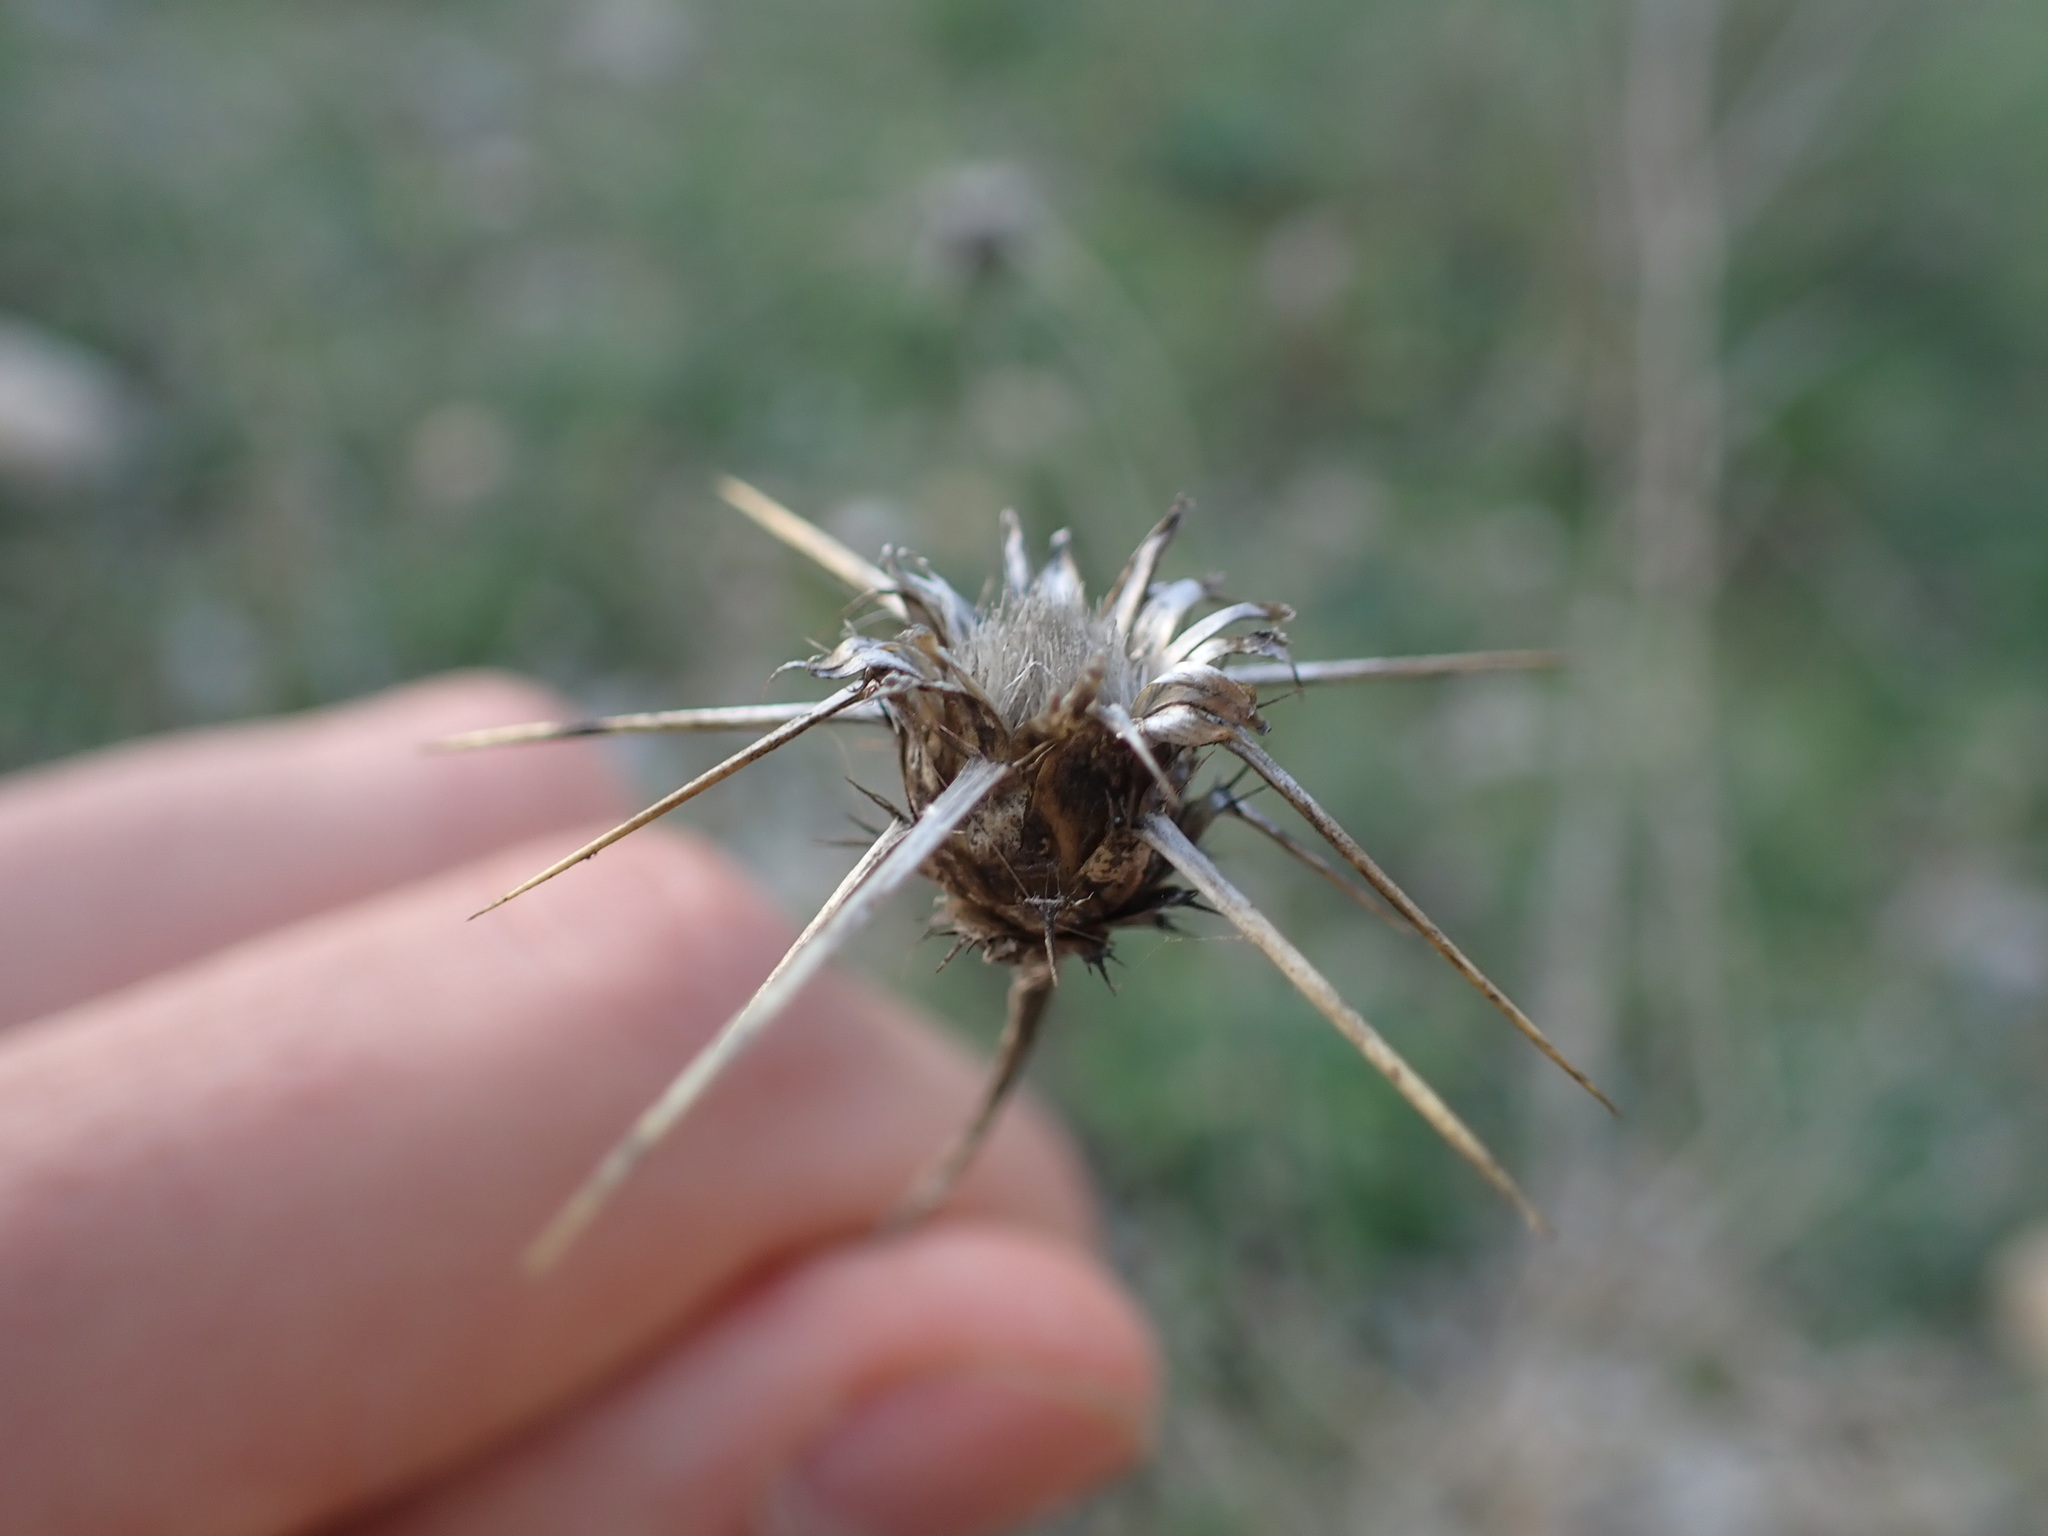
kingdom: Plantae
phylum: Tracheophyta
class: Magnoliopsida
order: Asterales
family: Asteraceae
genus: Centaurea
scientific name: Centaurea solstitialis
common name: Yellow star-thistle
